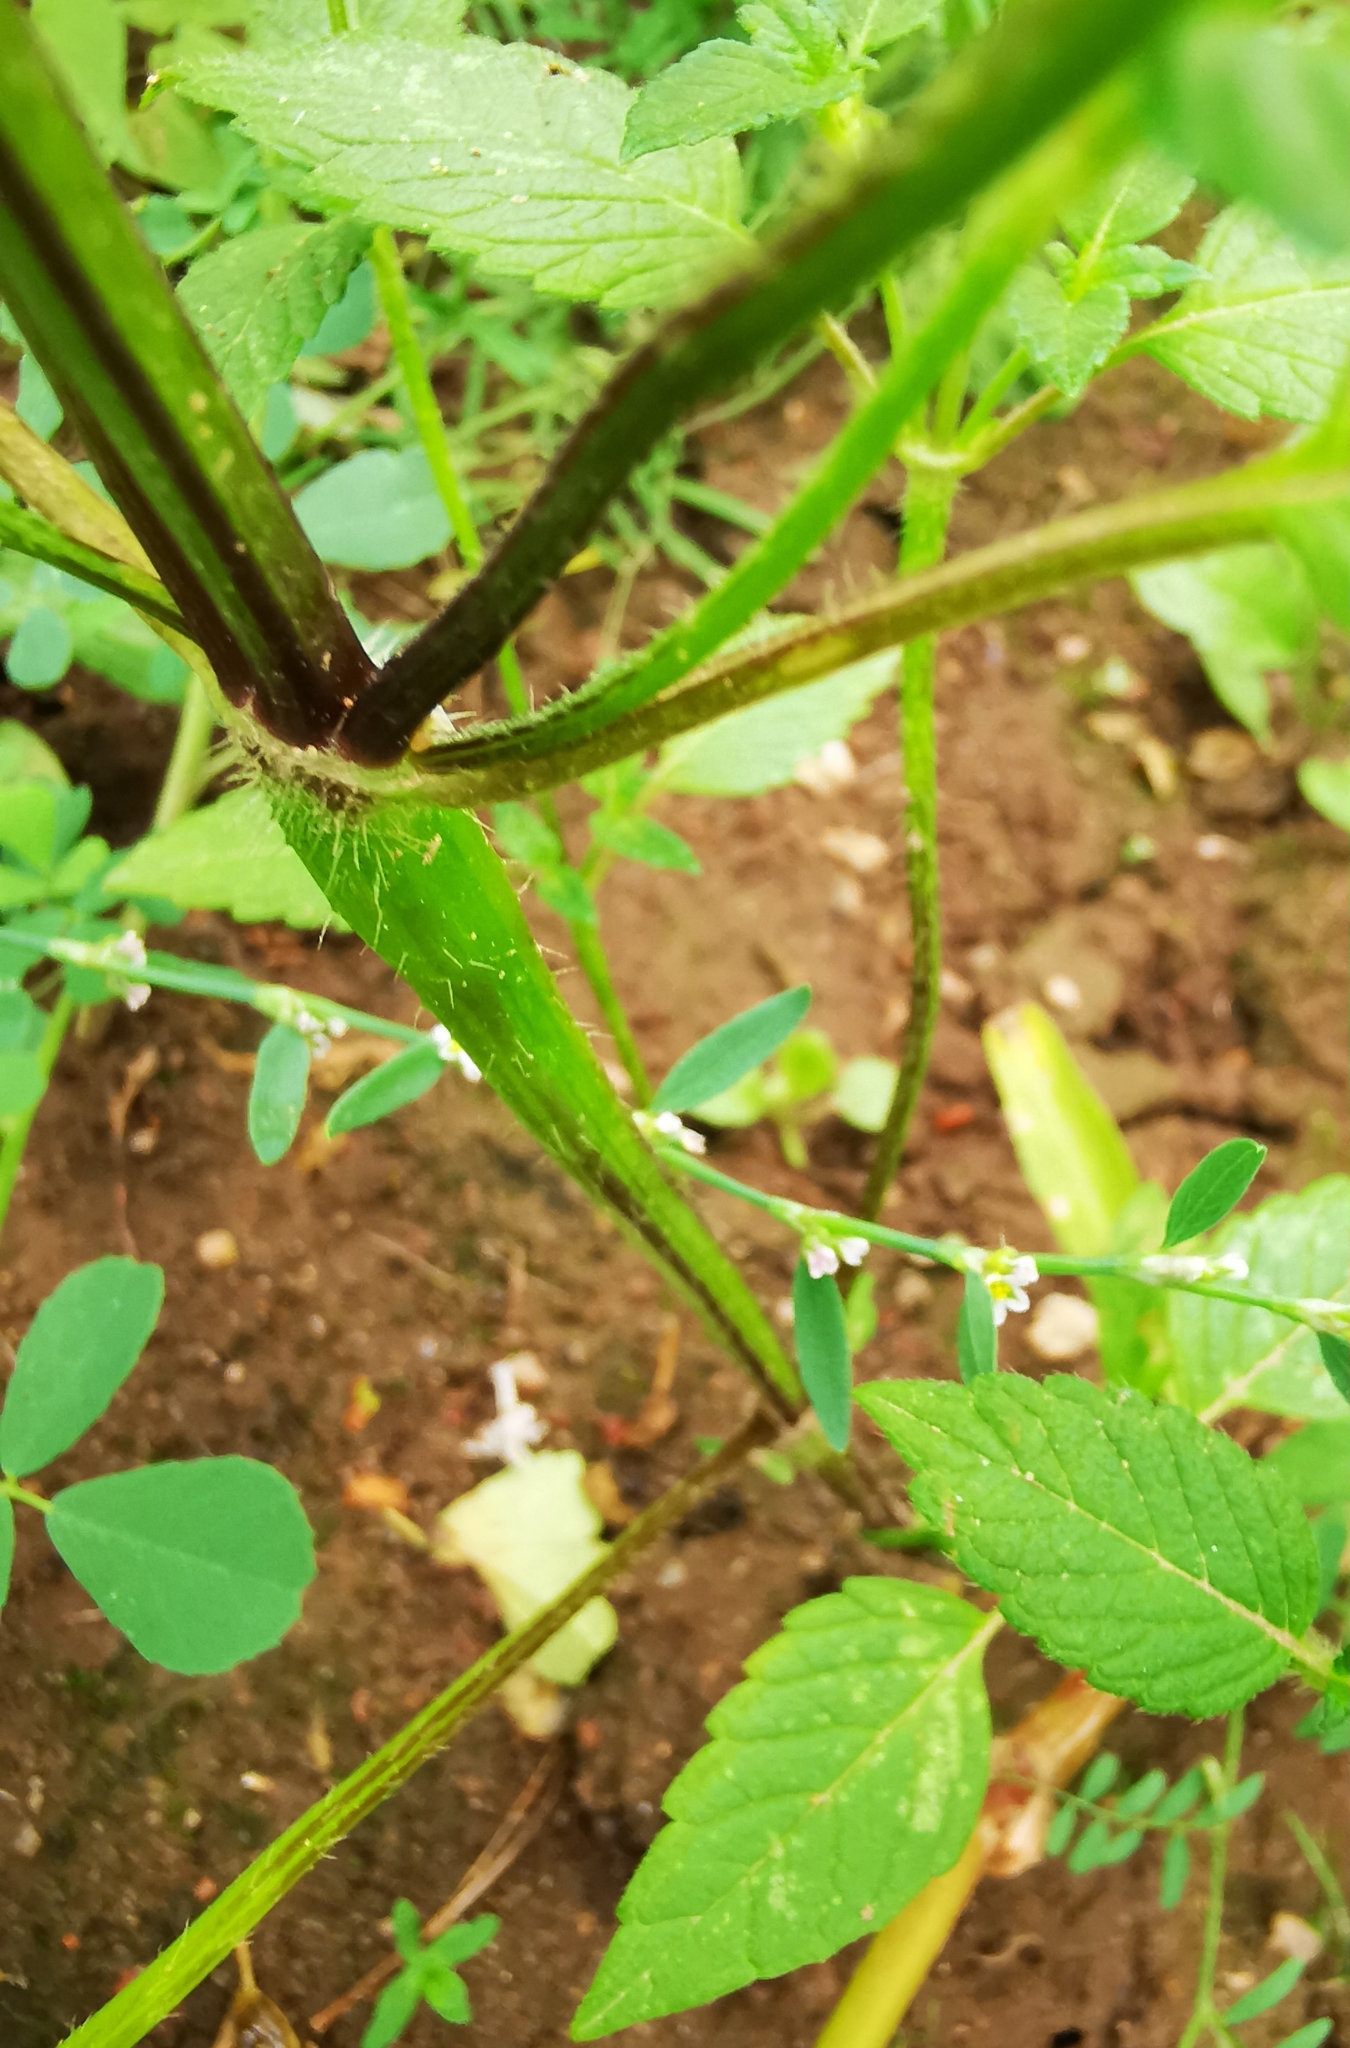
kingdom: Plantae
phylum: Tracheophyta
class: Magnoliopsida
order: Lamiales
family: Lamiaceae
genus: Galeopsis
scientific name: Galeopsis tetrahit
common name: Common hemp-nettle
